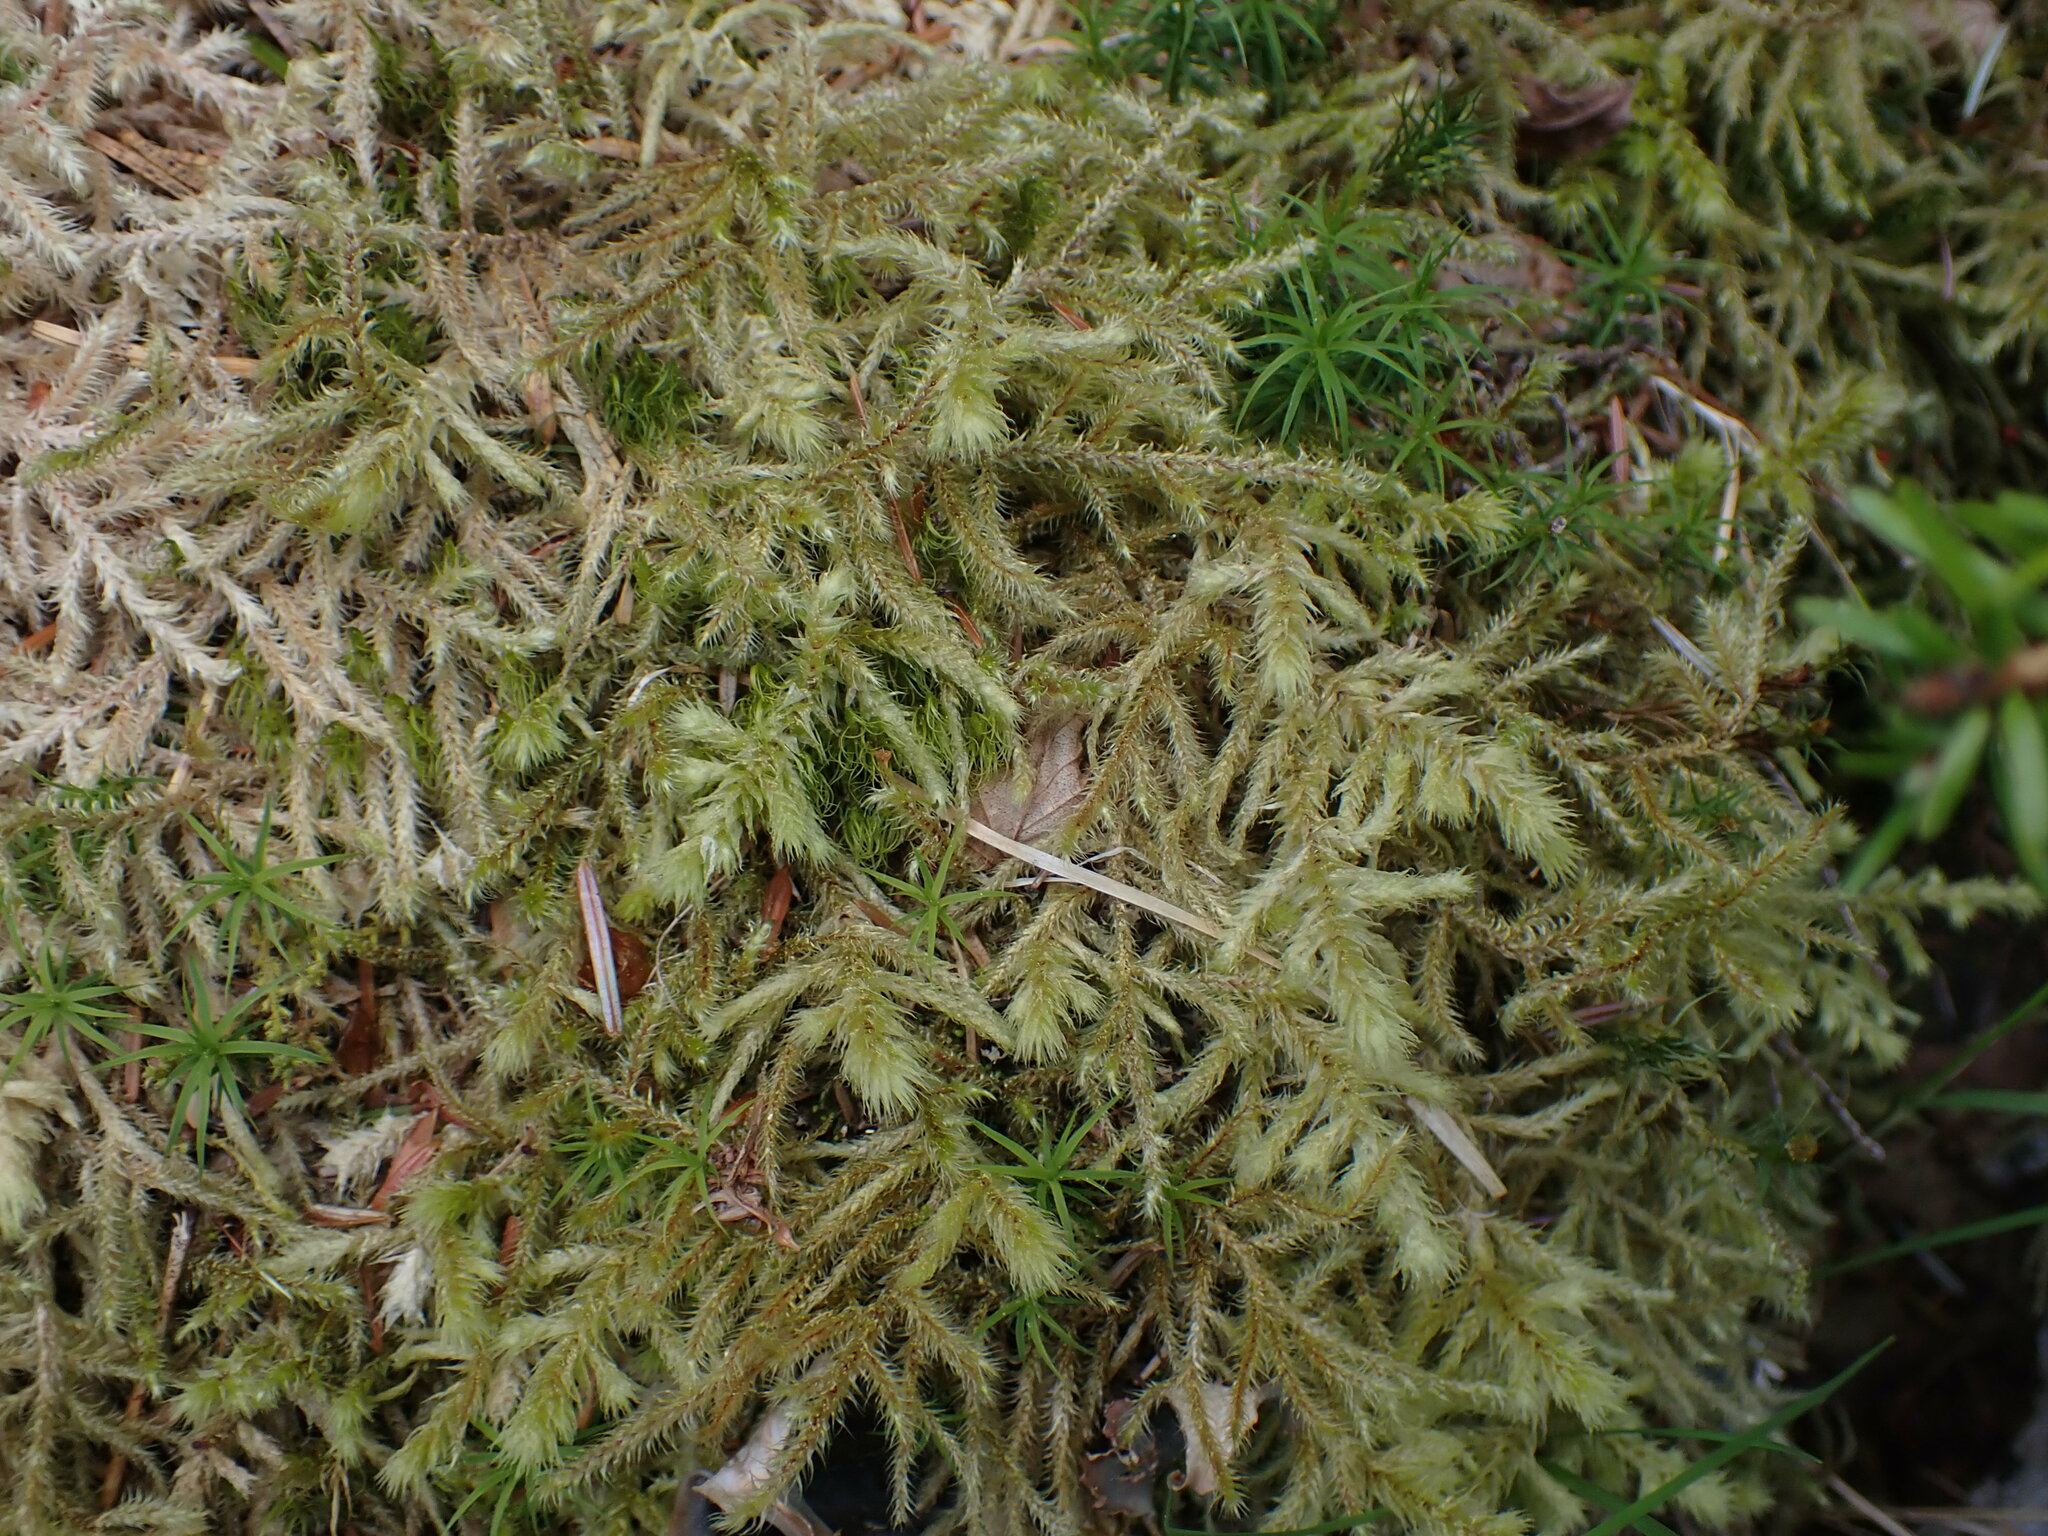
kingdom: Plantae
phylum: Bryophyta
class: Bryopsida
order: Hypnales
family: Hylocomiaceae
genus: Rhytidiadelphus
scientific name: Rhytidiadelphus loreus
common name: Lanky moss
